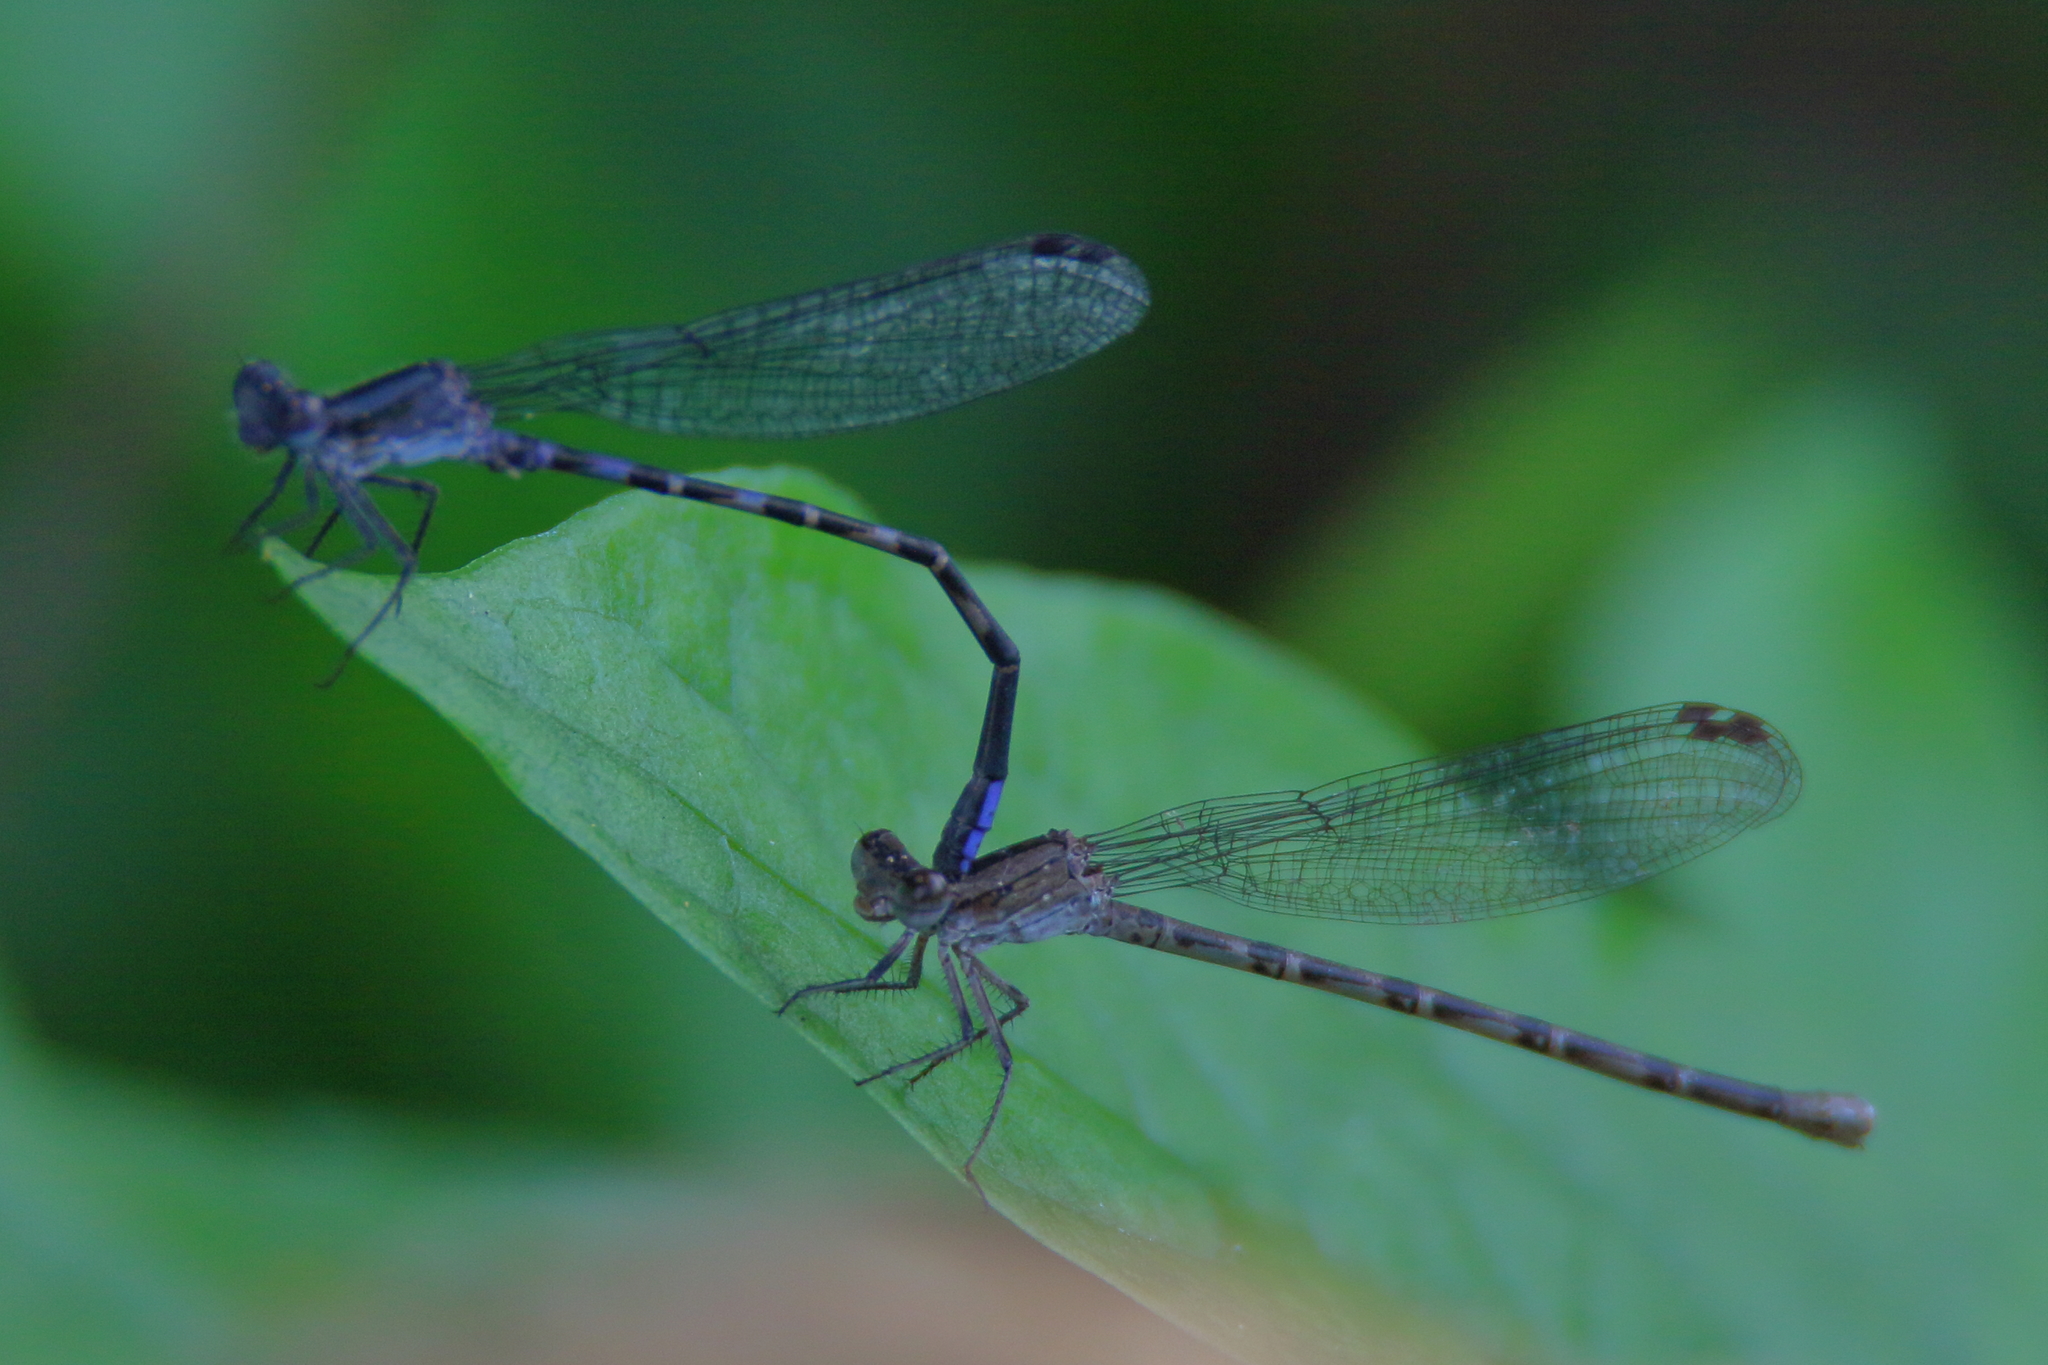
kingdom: Animalia
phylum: Arthropoda
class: Insecta
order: Odonata
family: Coenagrionidae
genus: Argia
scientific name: Argia immunda
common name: Kiowa dancer
